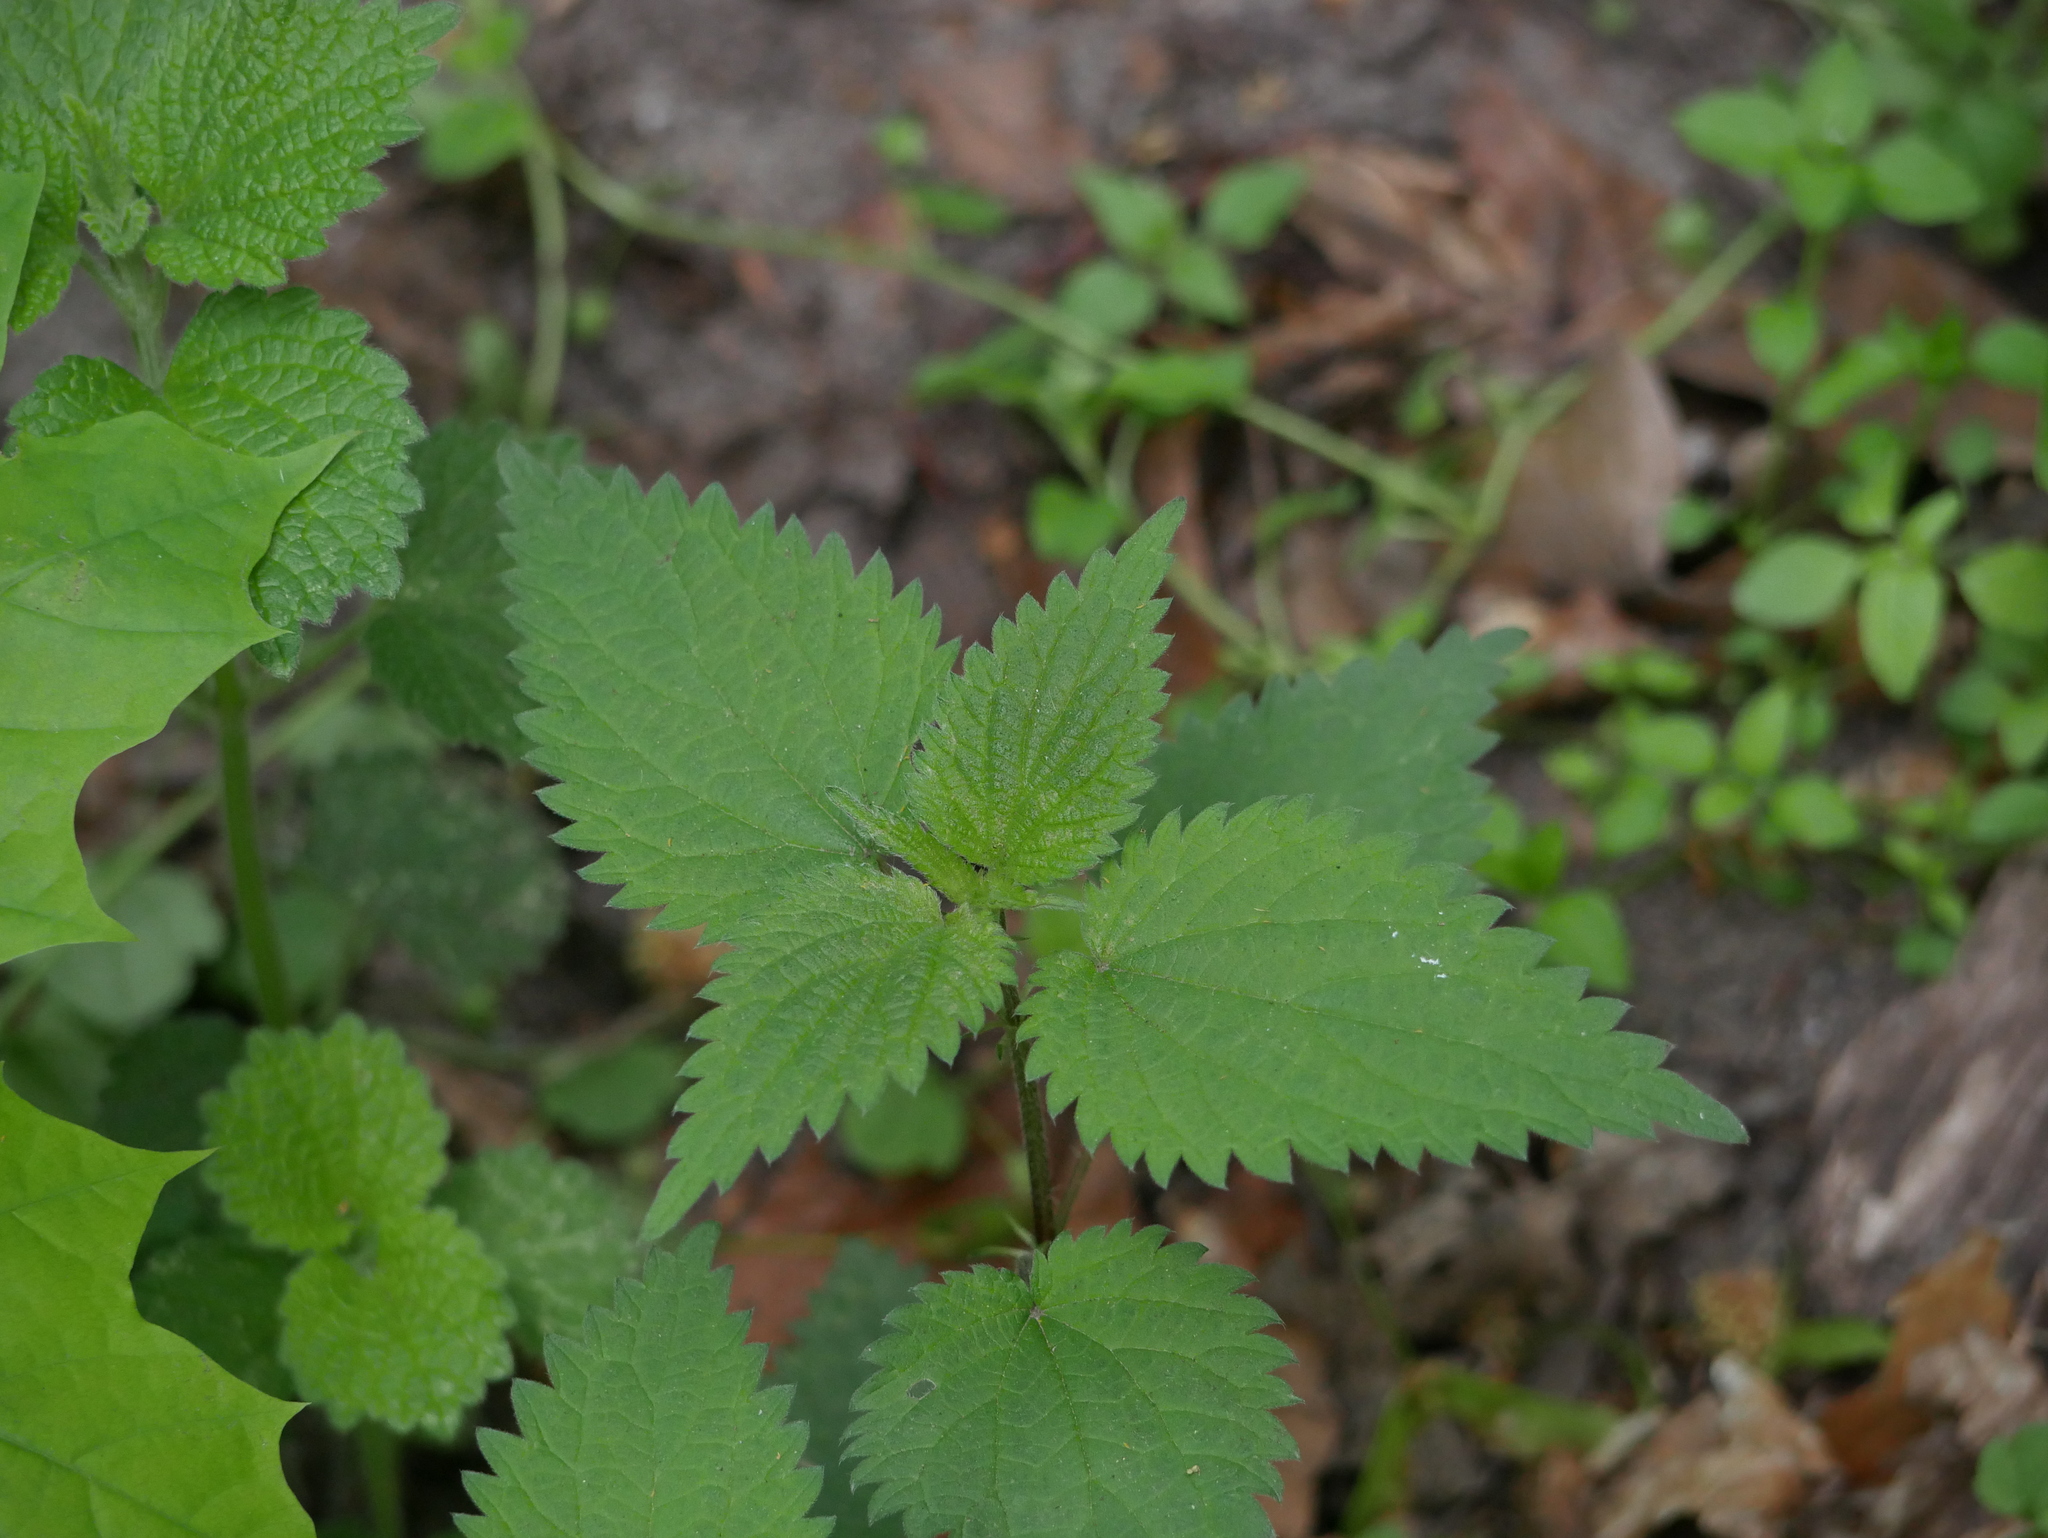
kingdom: Plantae
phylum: Tracheophyta
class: Magnoliopsida
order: Rosales
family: Urticaceae
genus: Urtica
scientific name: Urtica dioica
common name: Common nettle
